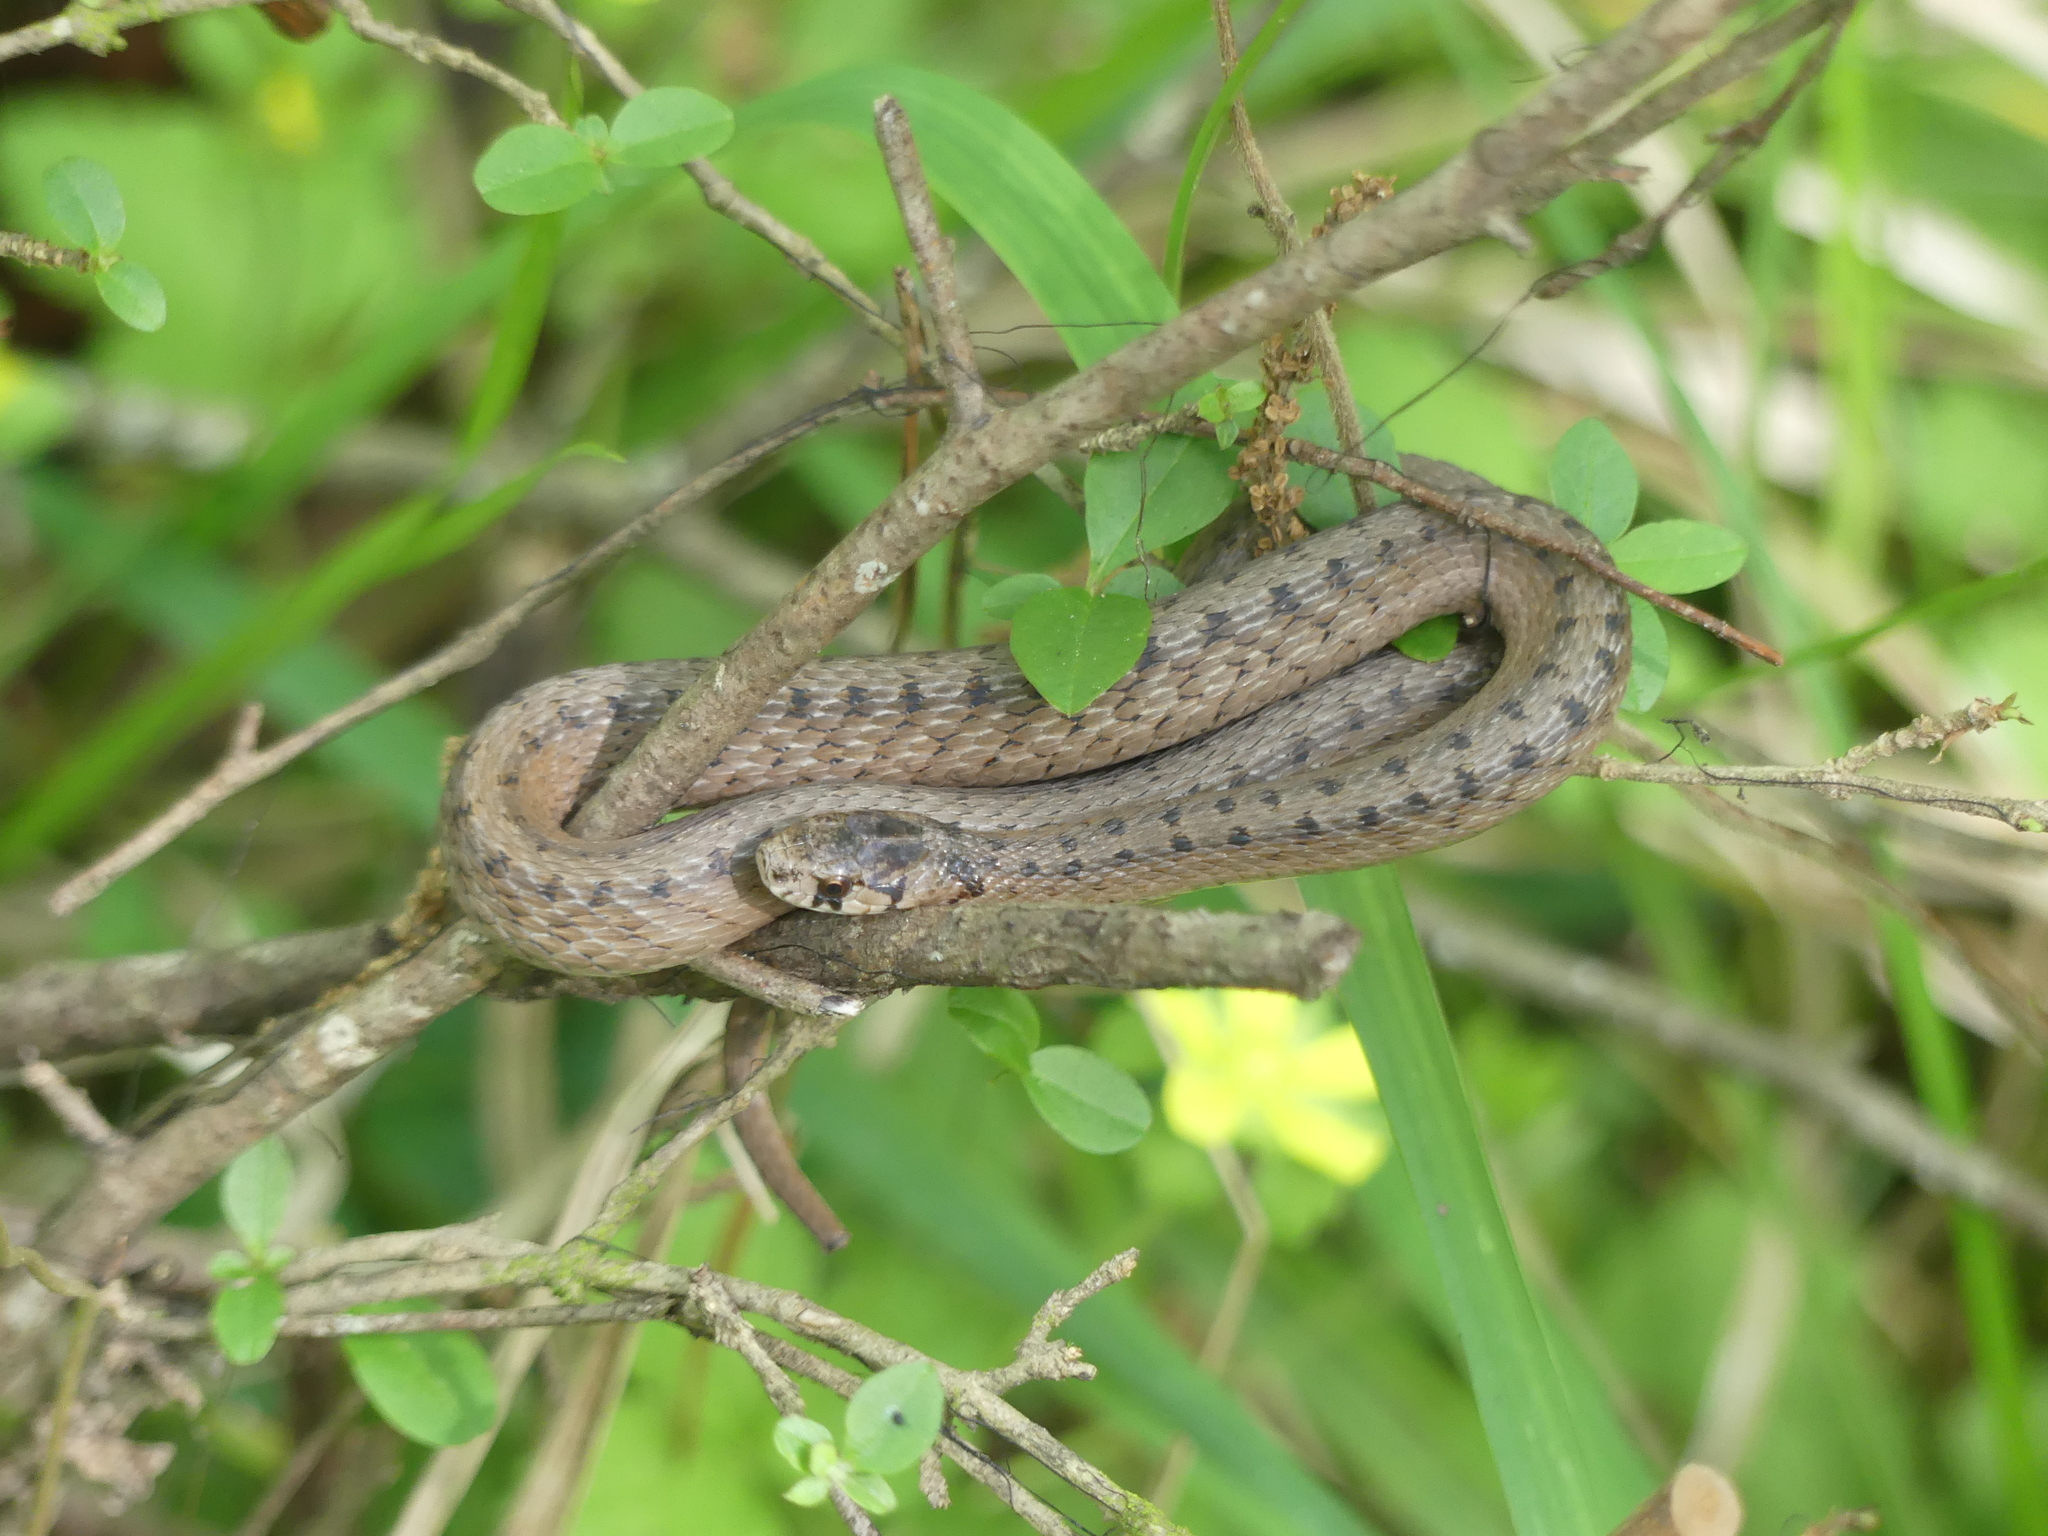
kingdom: Animalia
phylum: Chordata
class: Squamata
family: Colubridae
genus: Storeria
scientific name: Storeria dekayi
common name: (dekay’s) brown snake
